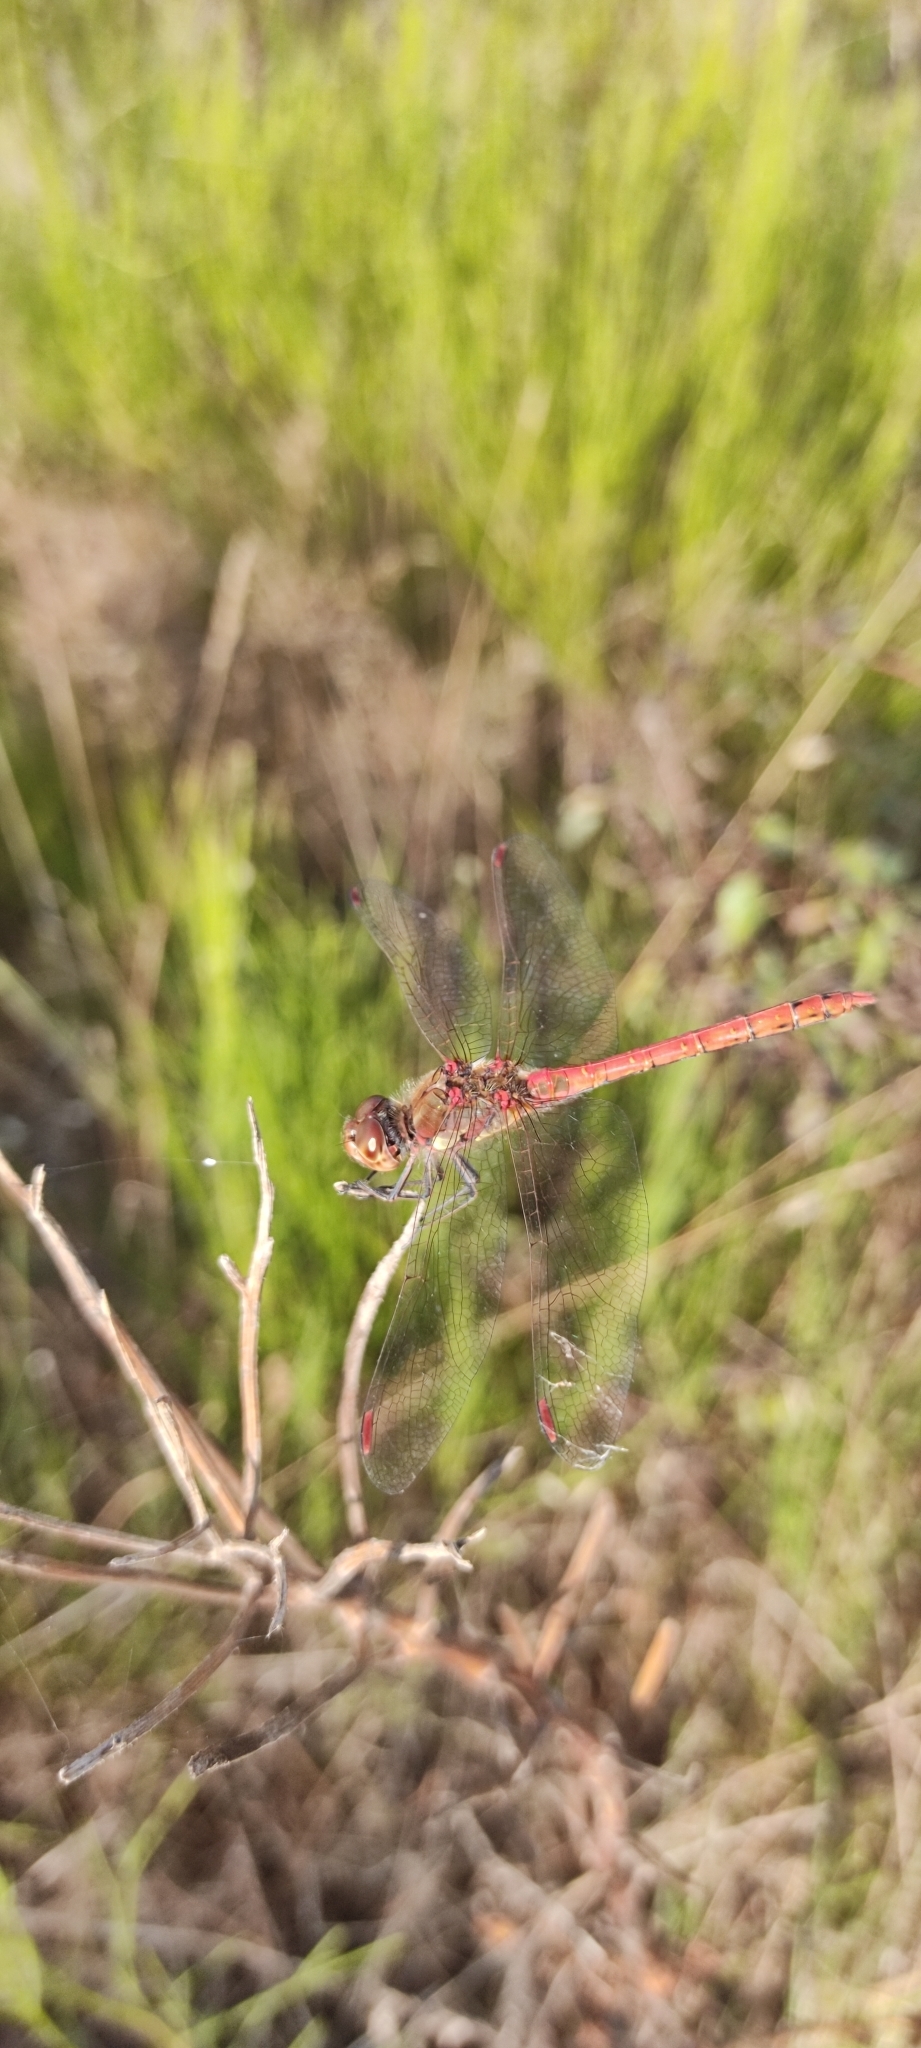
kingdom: Animalia
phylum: Arthropoda
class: Insecta
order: Odonata
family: Libellulidae
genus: Sympetrum
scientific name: Sympetrum striolatum
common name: Common darter
